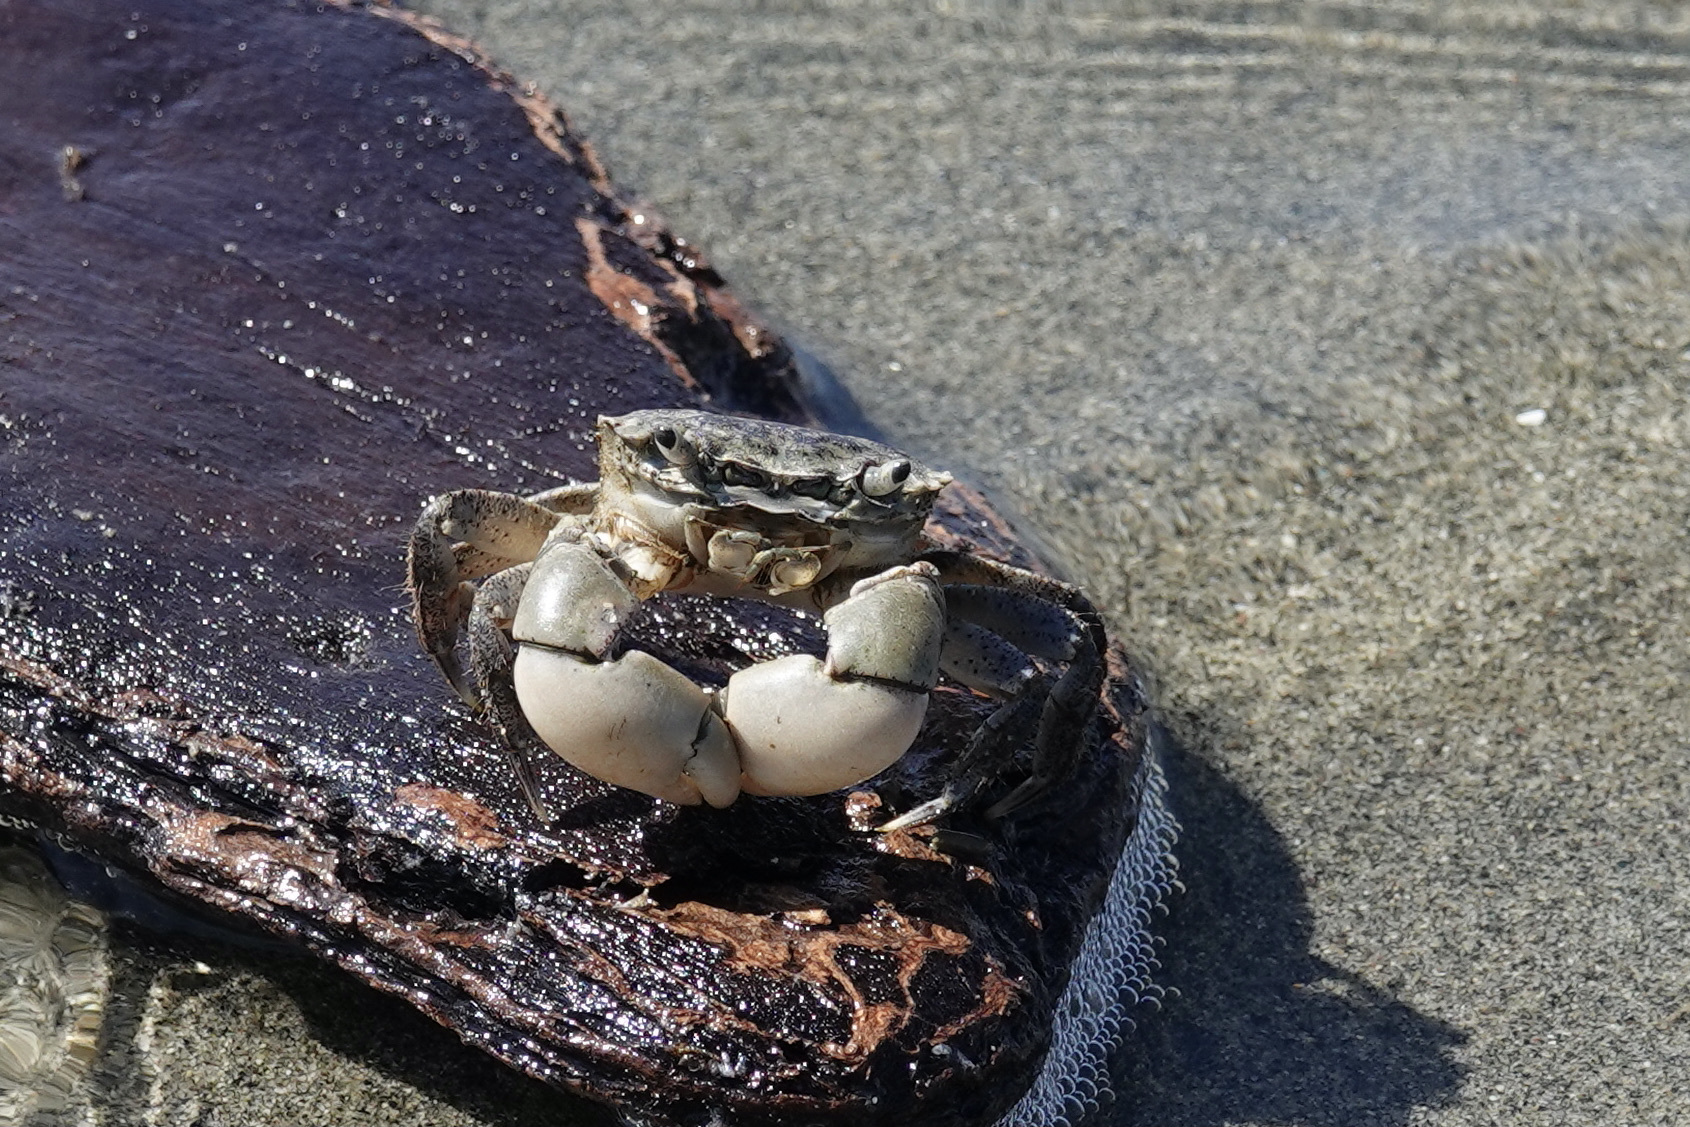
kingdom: Animalia
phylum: Arthropoda
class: Malacostraca
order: Decapoda
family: Varunidae
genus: Hemigrapsus
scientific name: Hemigrapsus oregonensis
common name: Yellow shore crab
